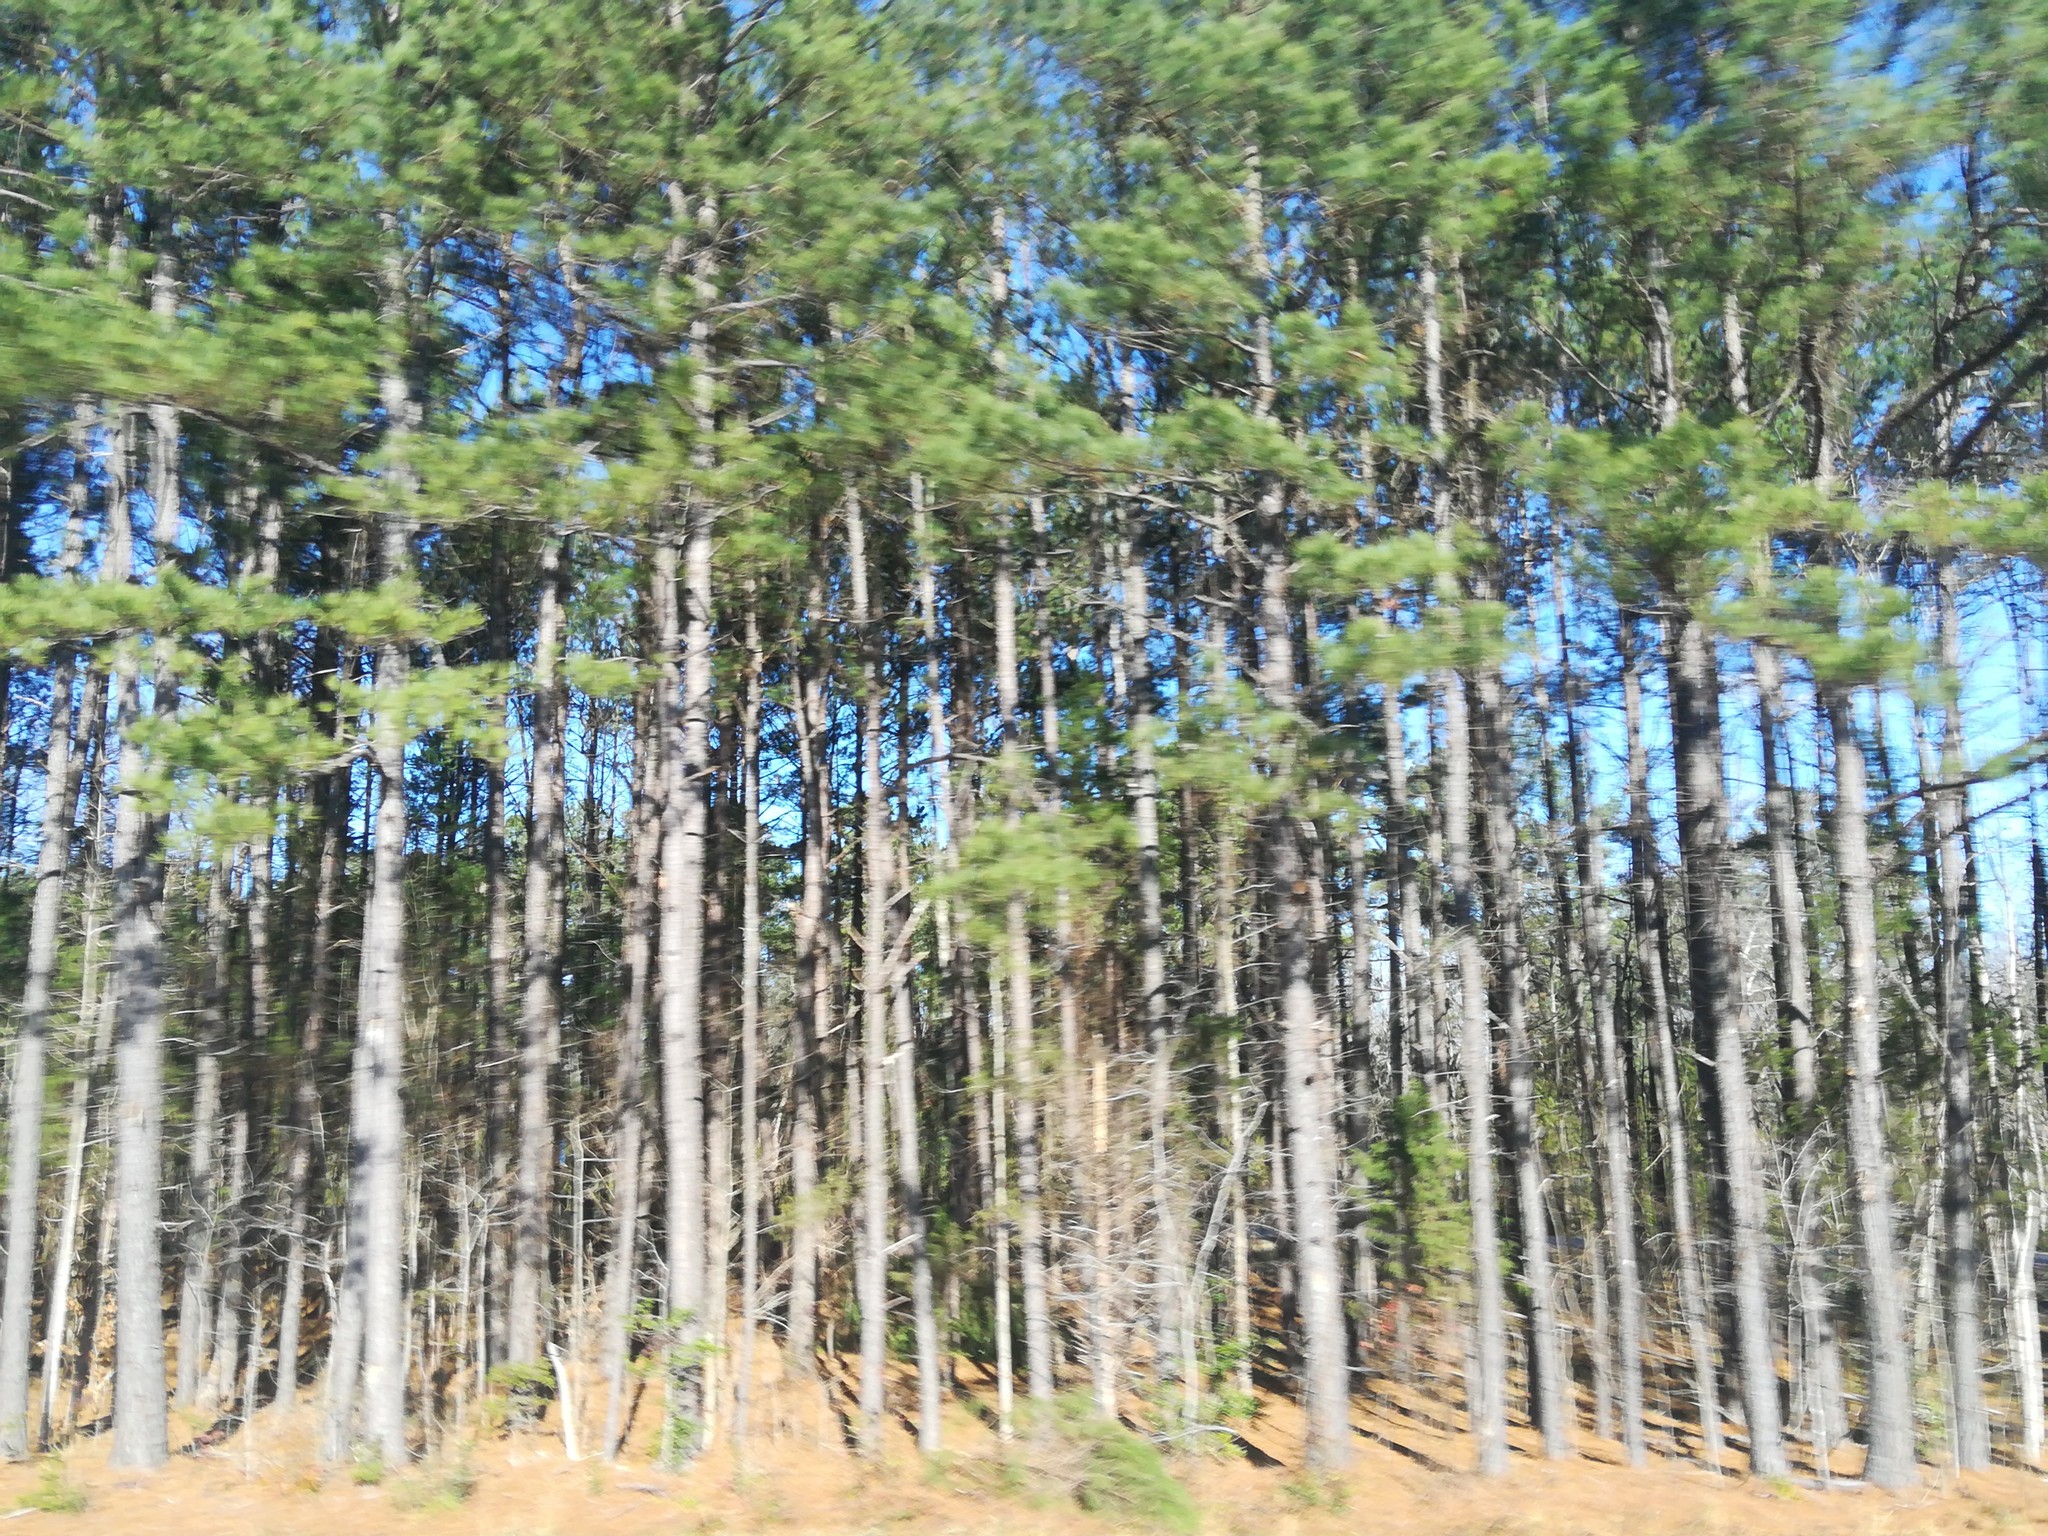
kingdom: Plantae
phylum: Tracheophyta
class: Pinopsida
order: Pinales
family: Pinaceae
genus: Pinus
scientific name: Pinus taeda
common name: Loblolly pine
